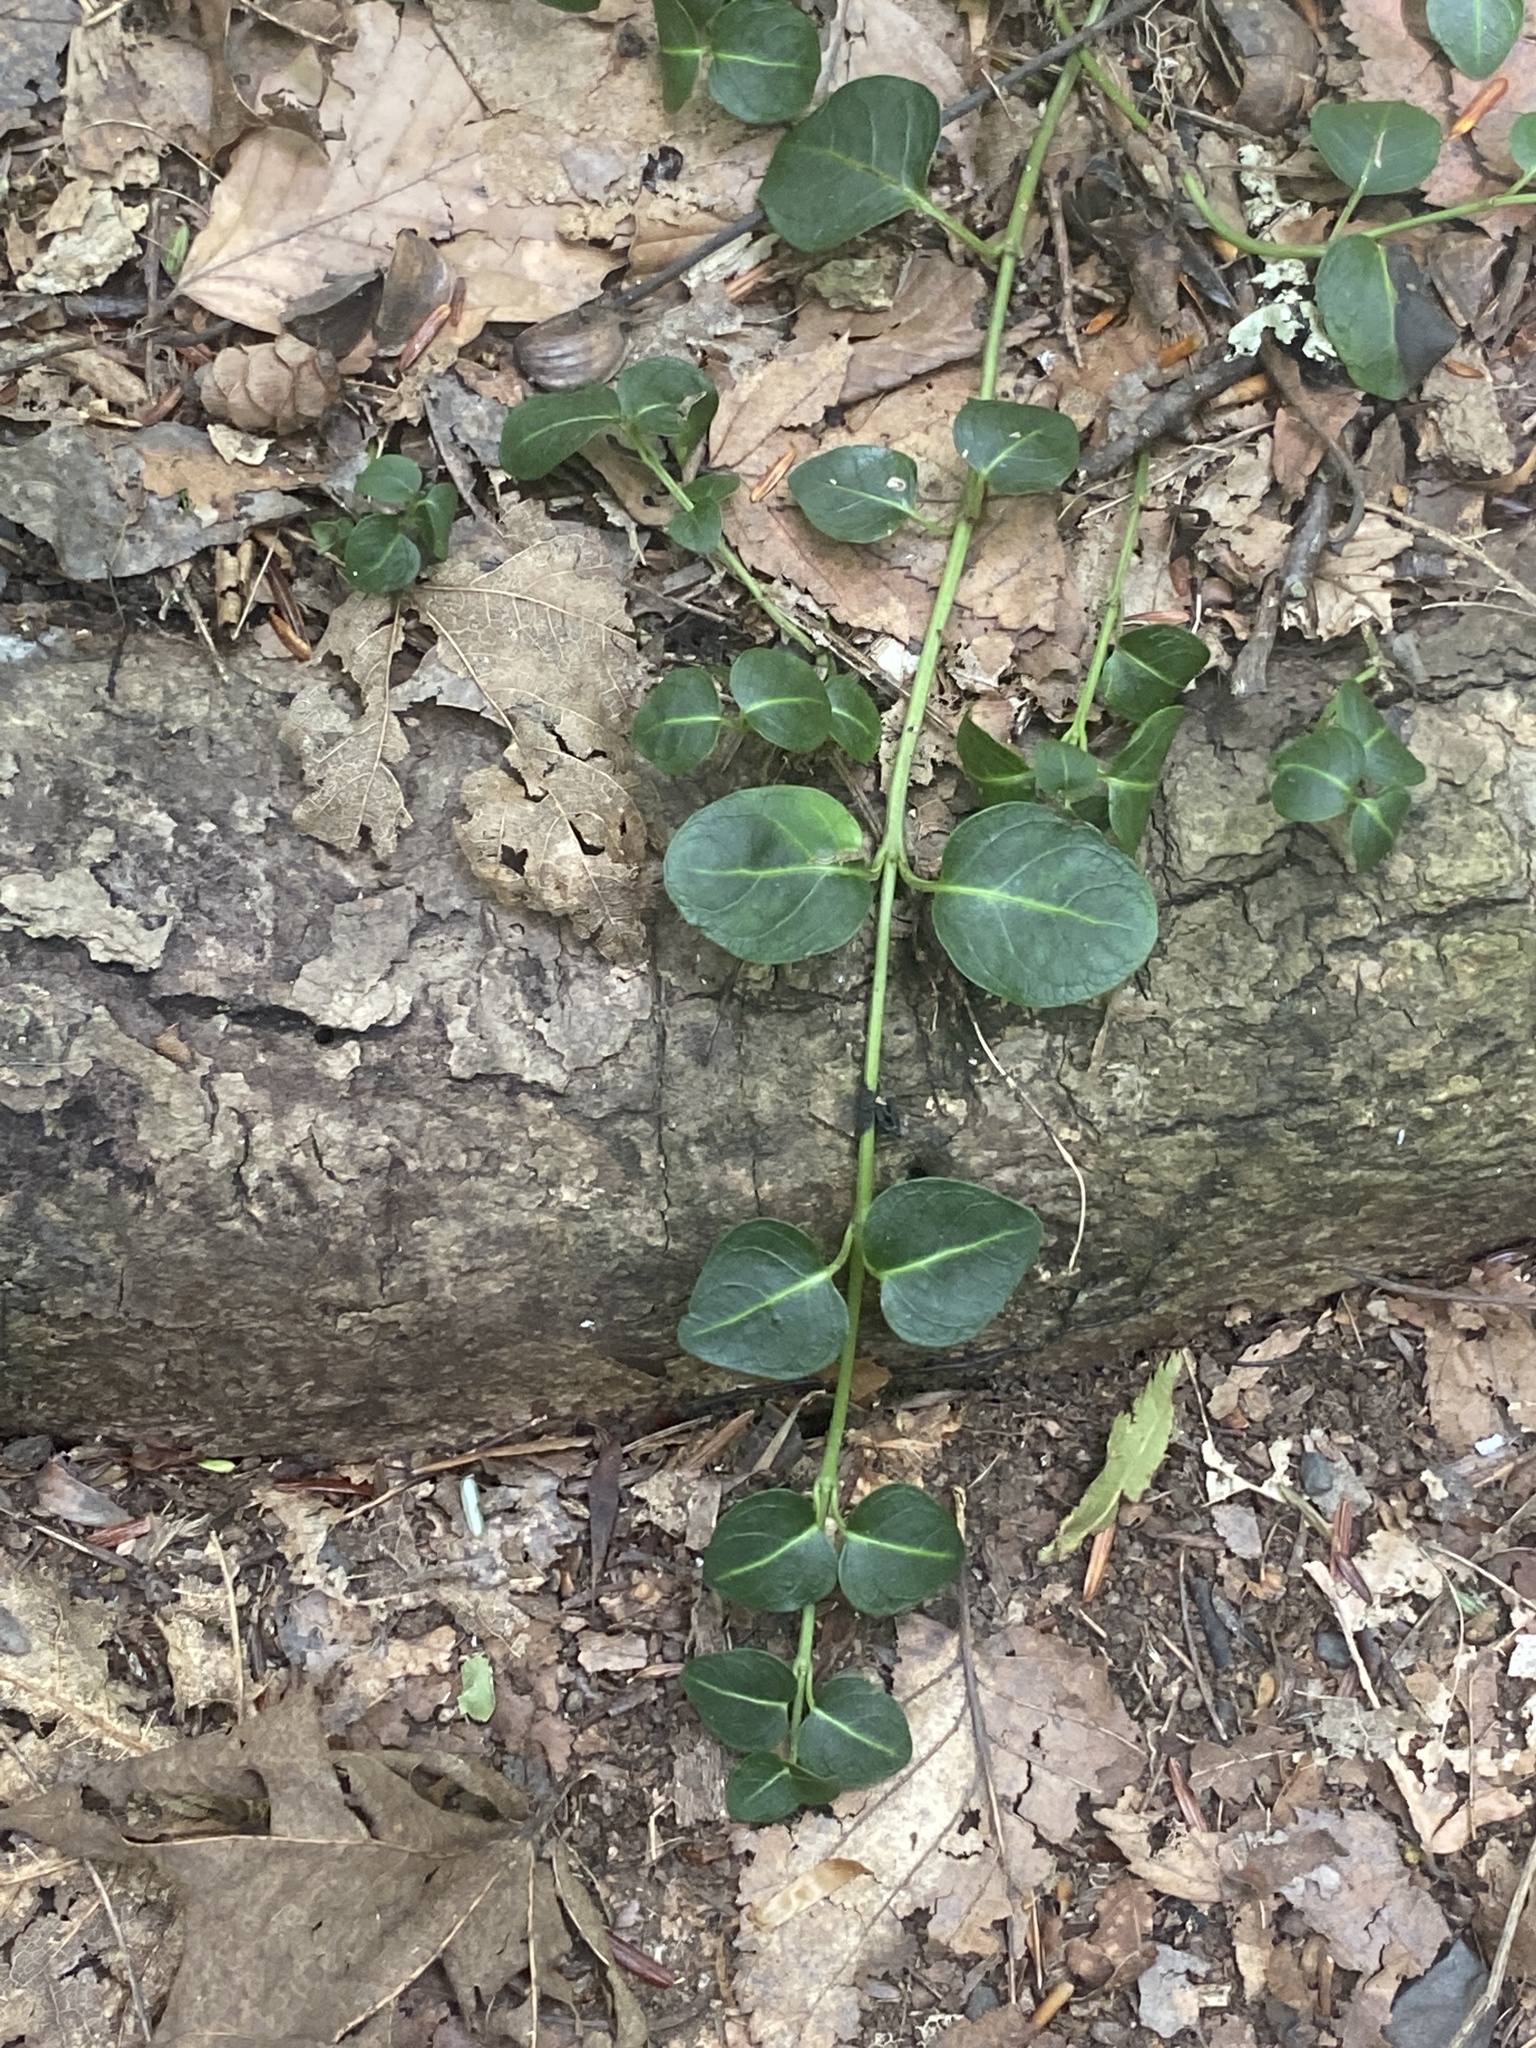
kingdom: Plantae
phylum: Tracheophyta
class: Magnoliopsida
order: Gentianales
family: Rubiaceae
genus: Mitchella
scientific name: Mitchella repens
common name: Partridge-berry
